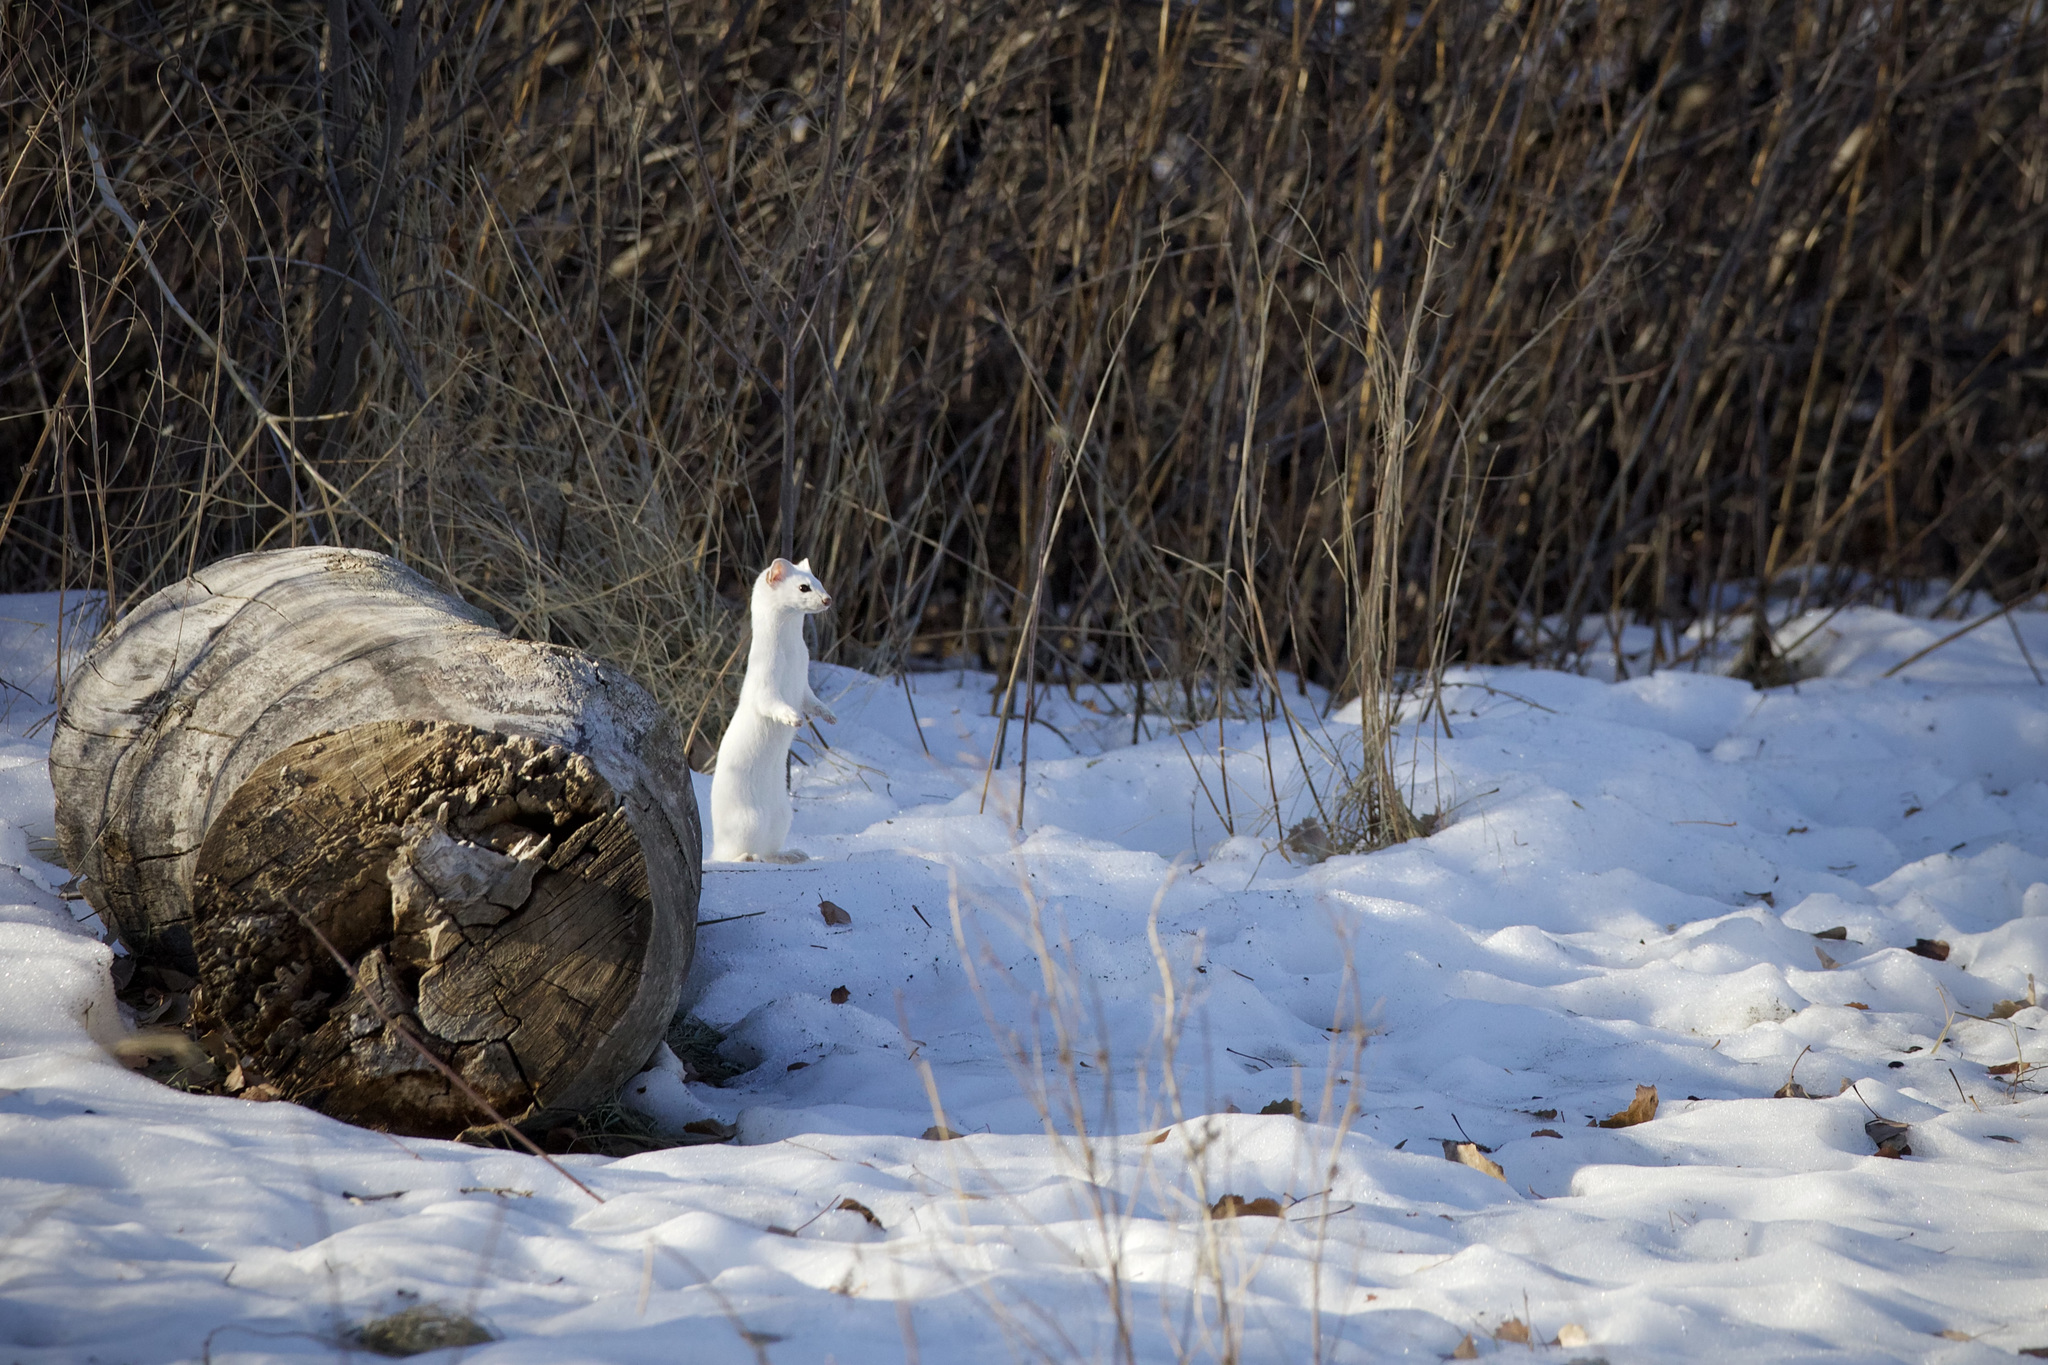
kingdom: Animalia
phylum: Chordata
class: Mammalia
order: Carnivora
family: Mustelidae
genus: Mustela
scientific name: Mustela
